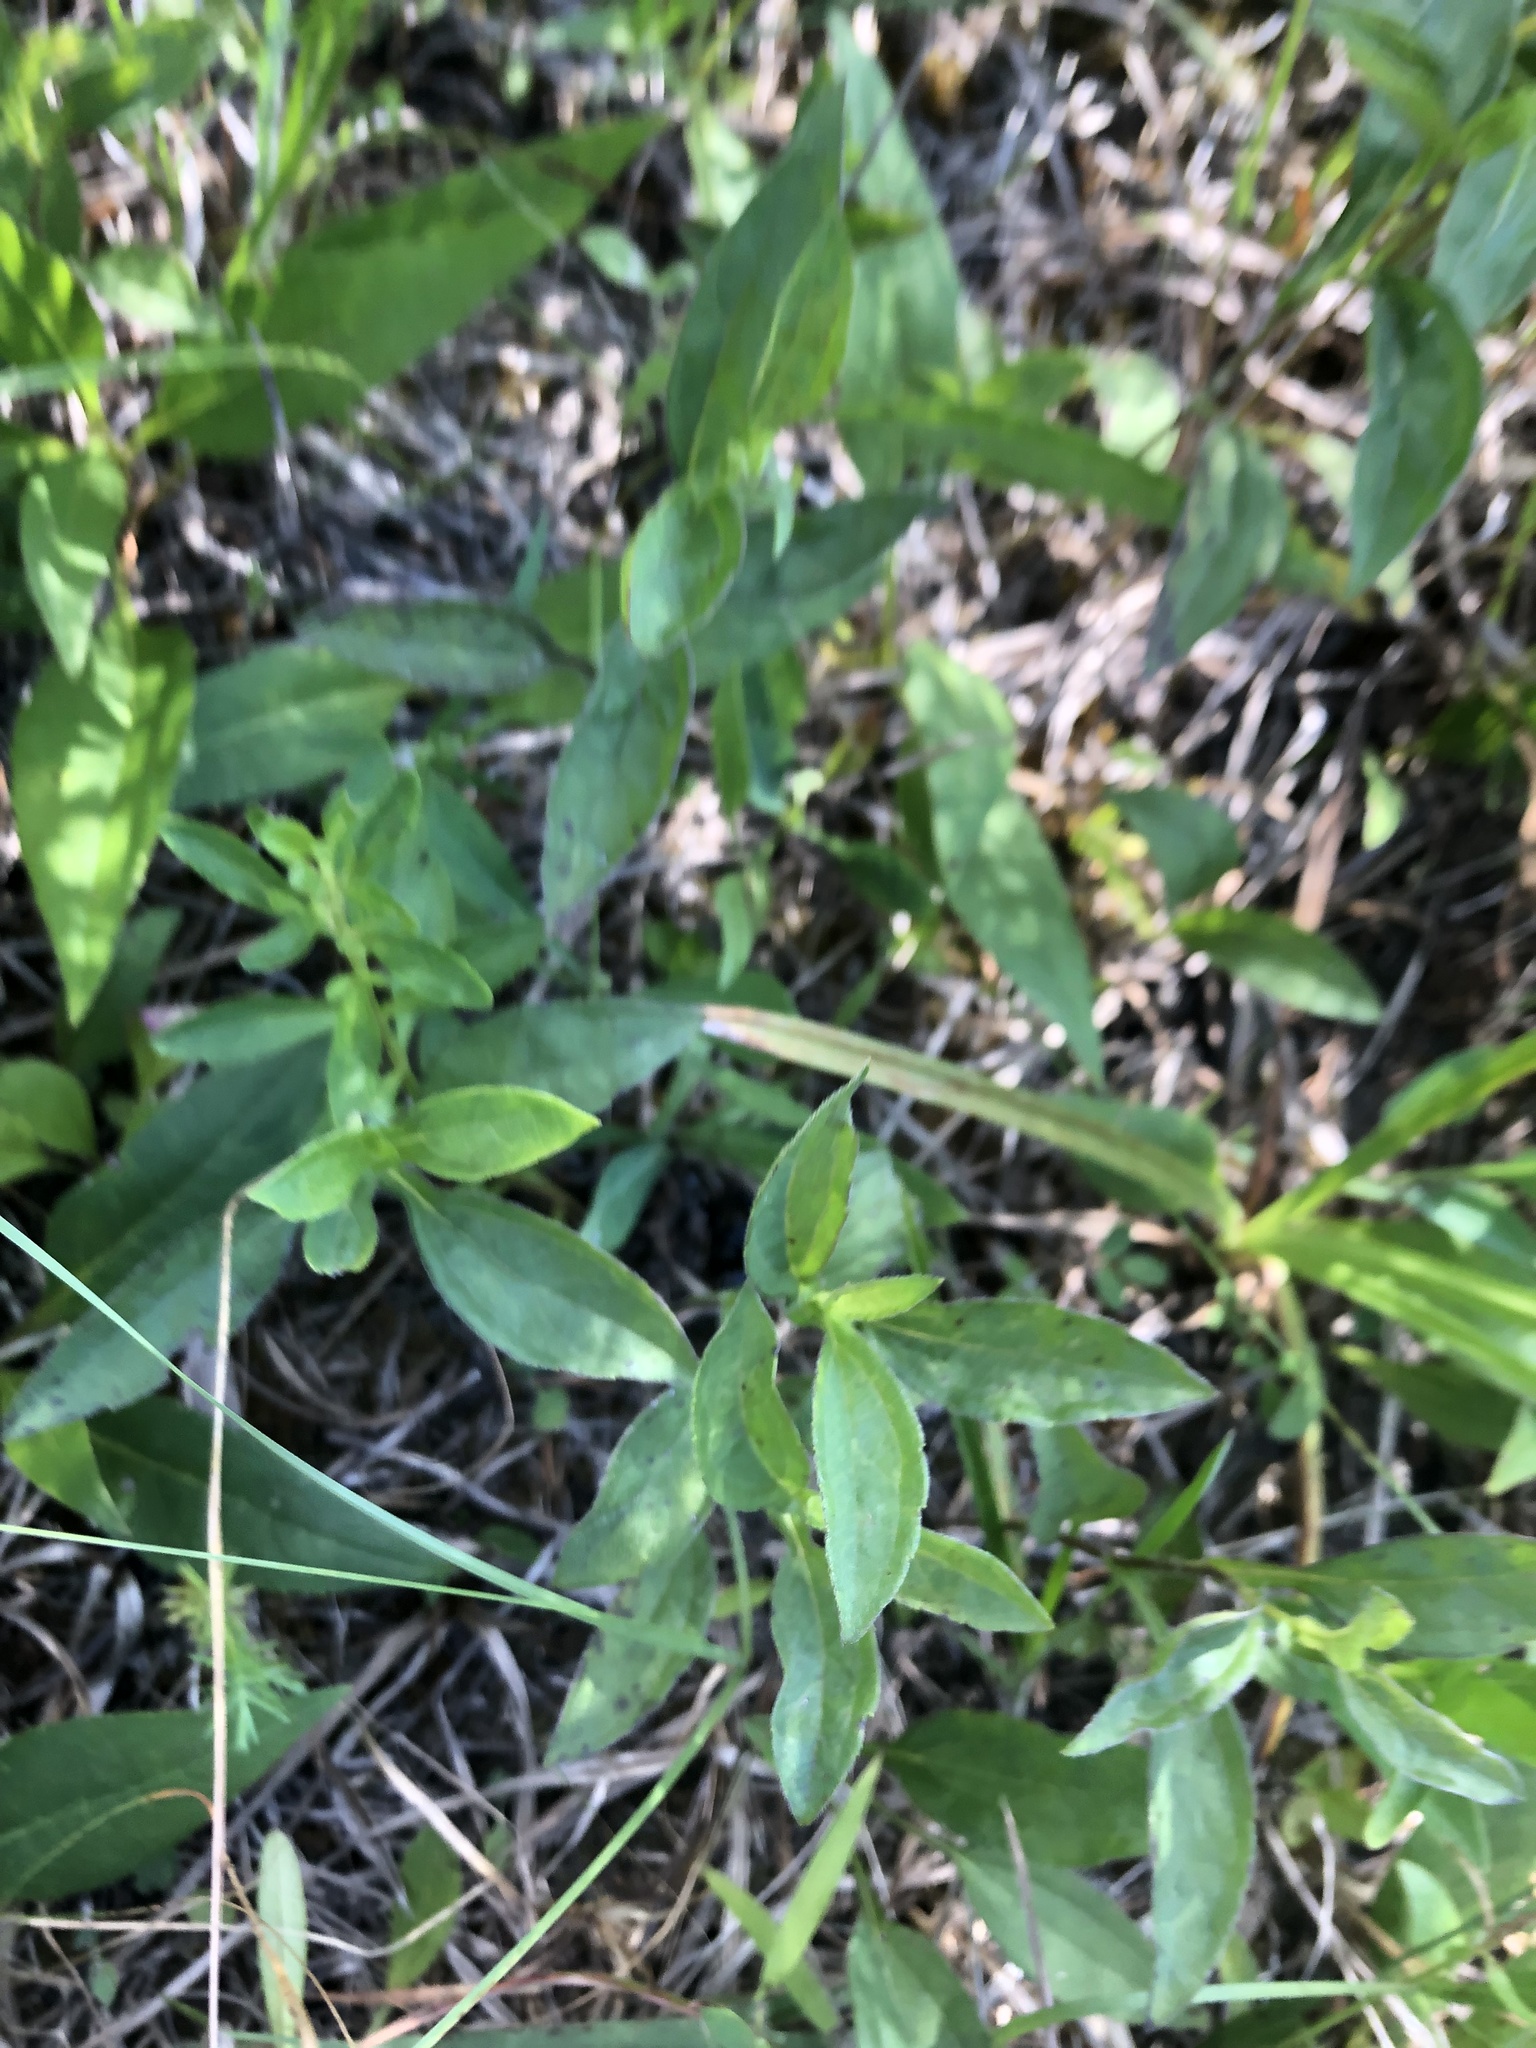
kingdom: Plantae
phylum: Tracheophyta
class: Magnoliopsida
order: Asterales
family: Asteraceae
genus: Rudbeckia
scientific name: Rudbeckia terranigrae
